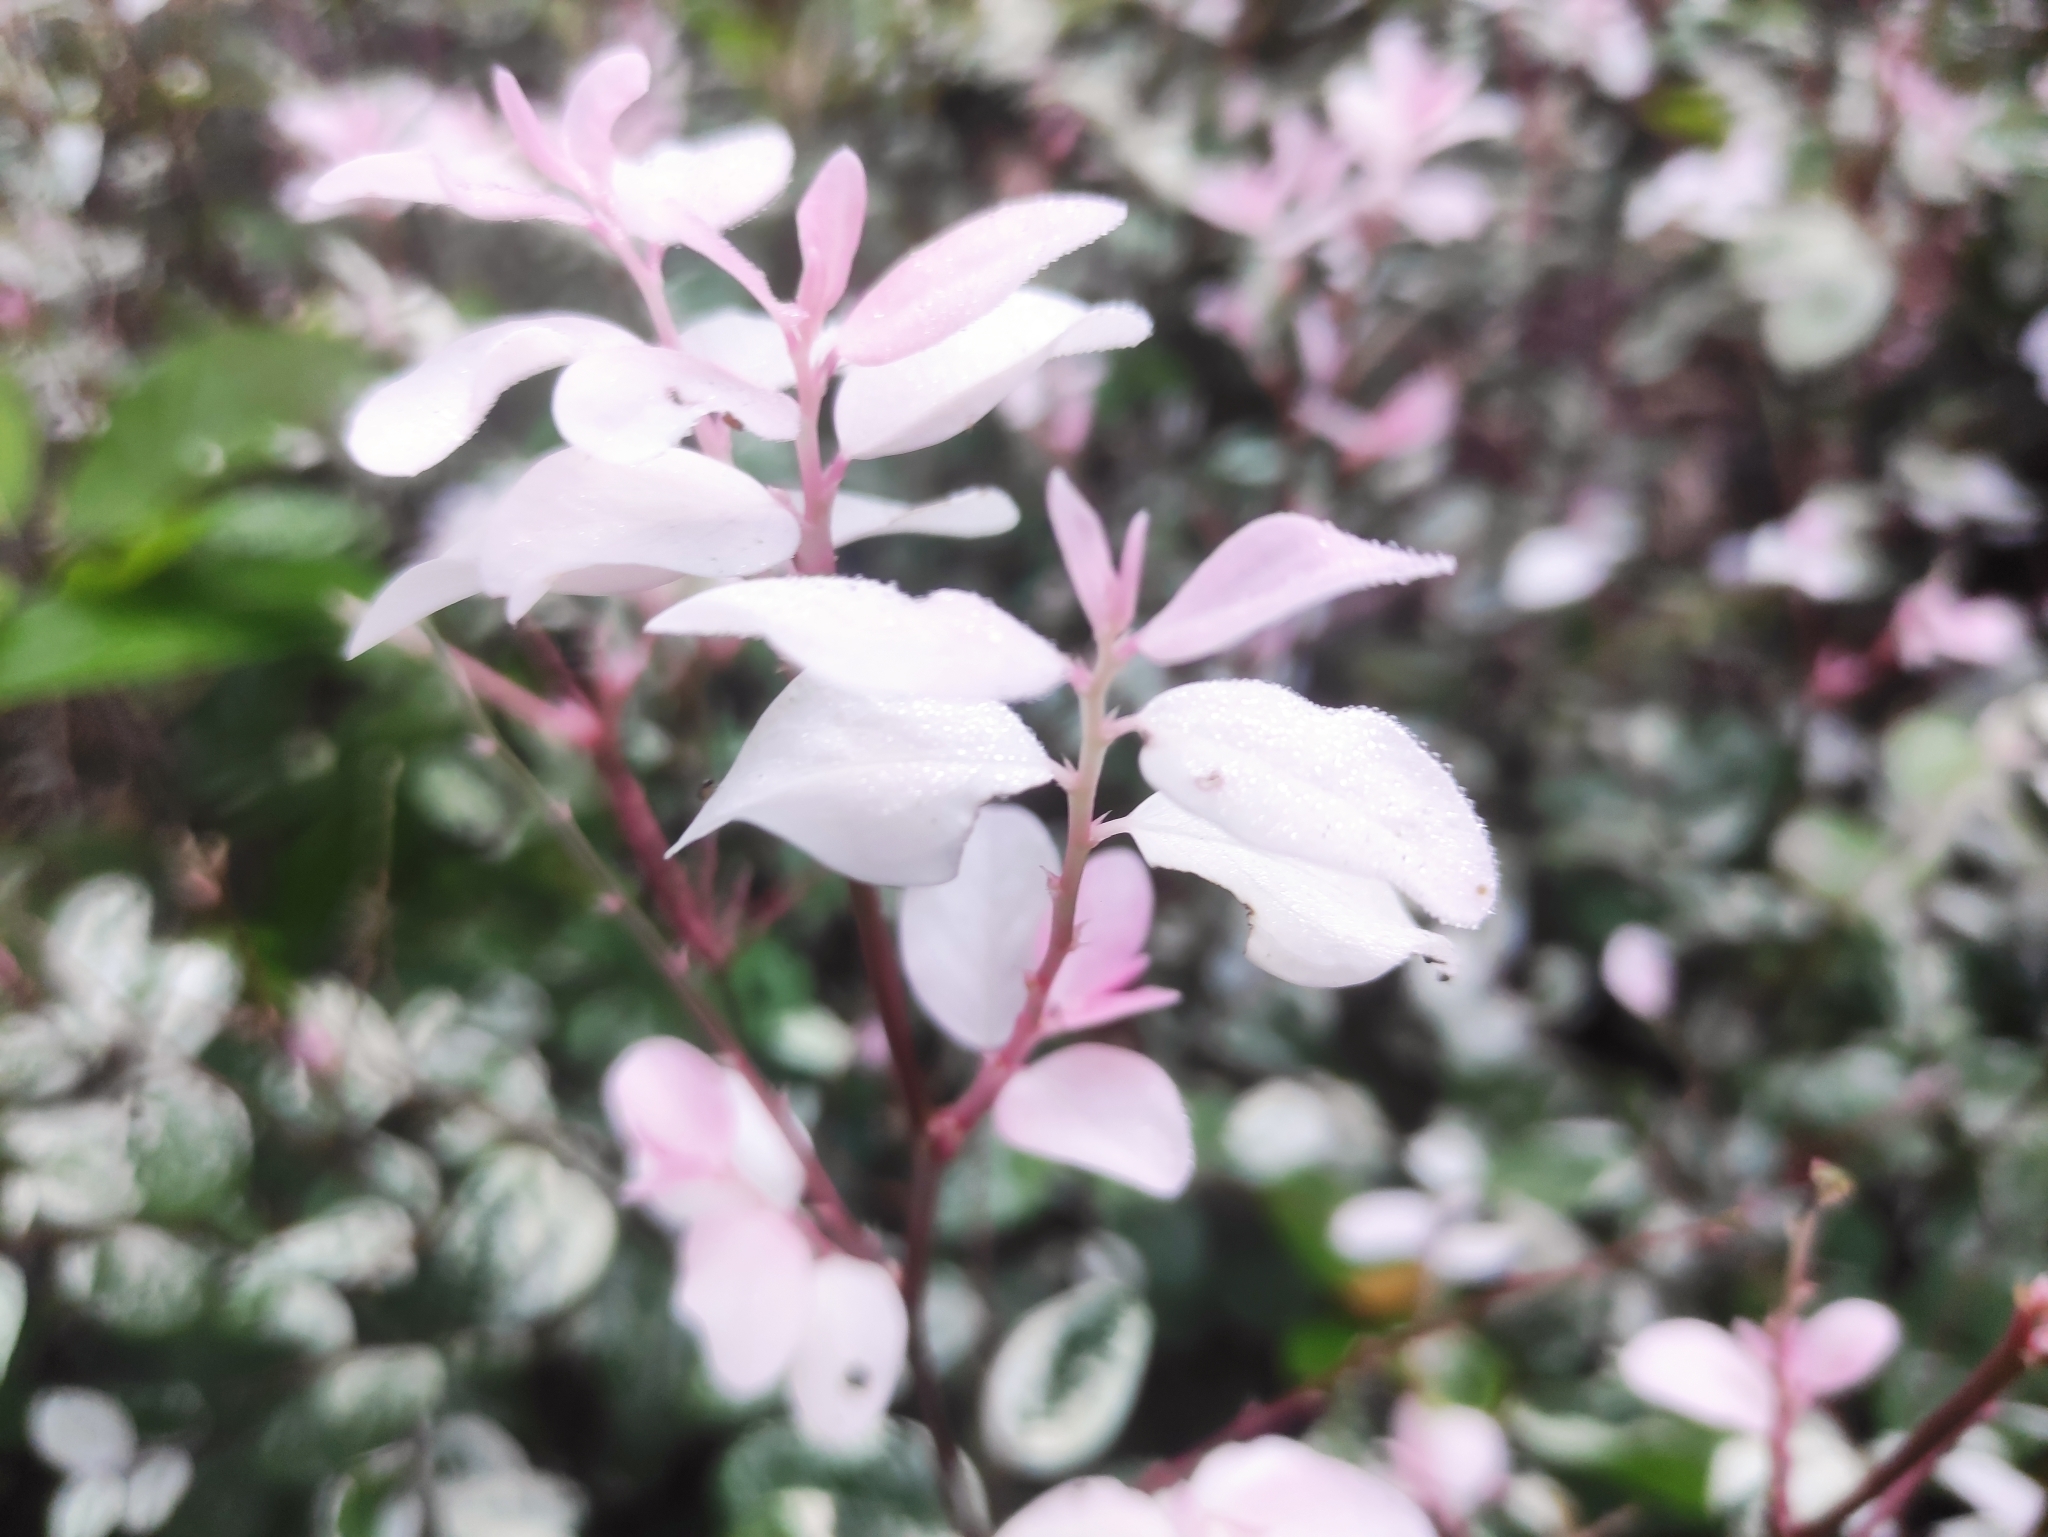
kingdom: Plantae
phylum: Tracheophyta
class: Magnoliopsida
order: Malpighiales
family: Phyllanthaceae
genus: Breynia
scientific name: Breynia disticha
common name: Snowbush
